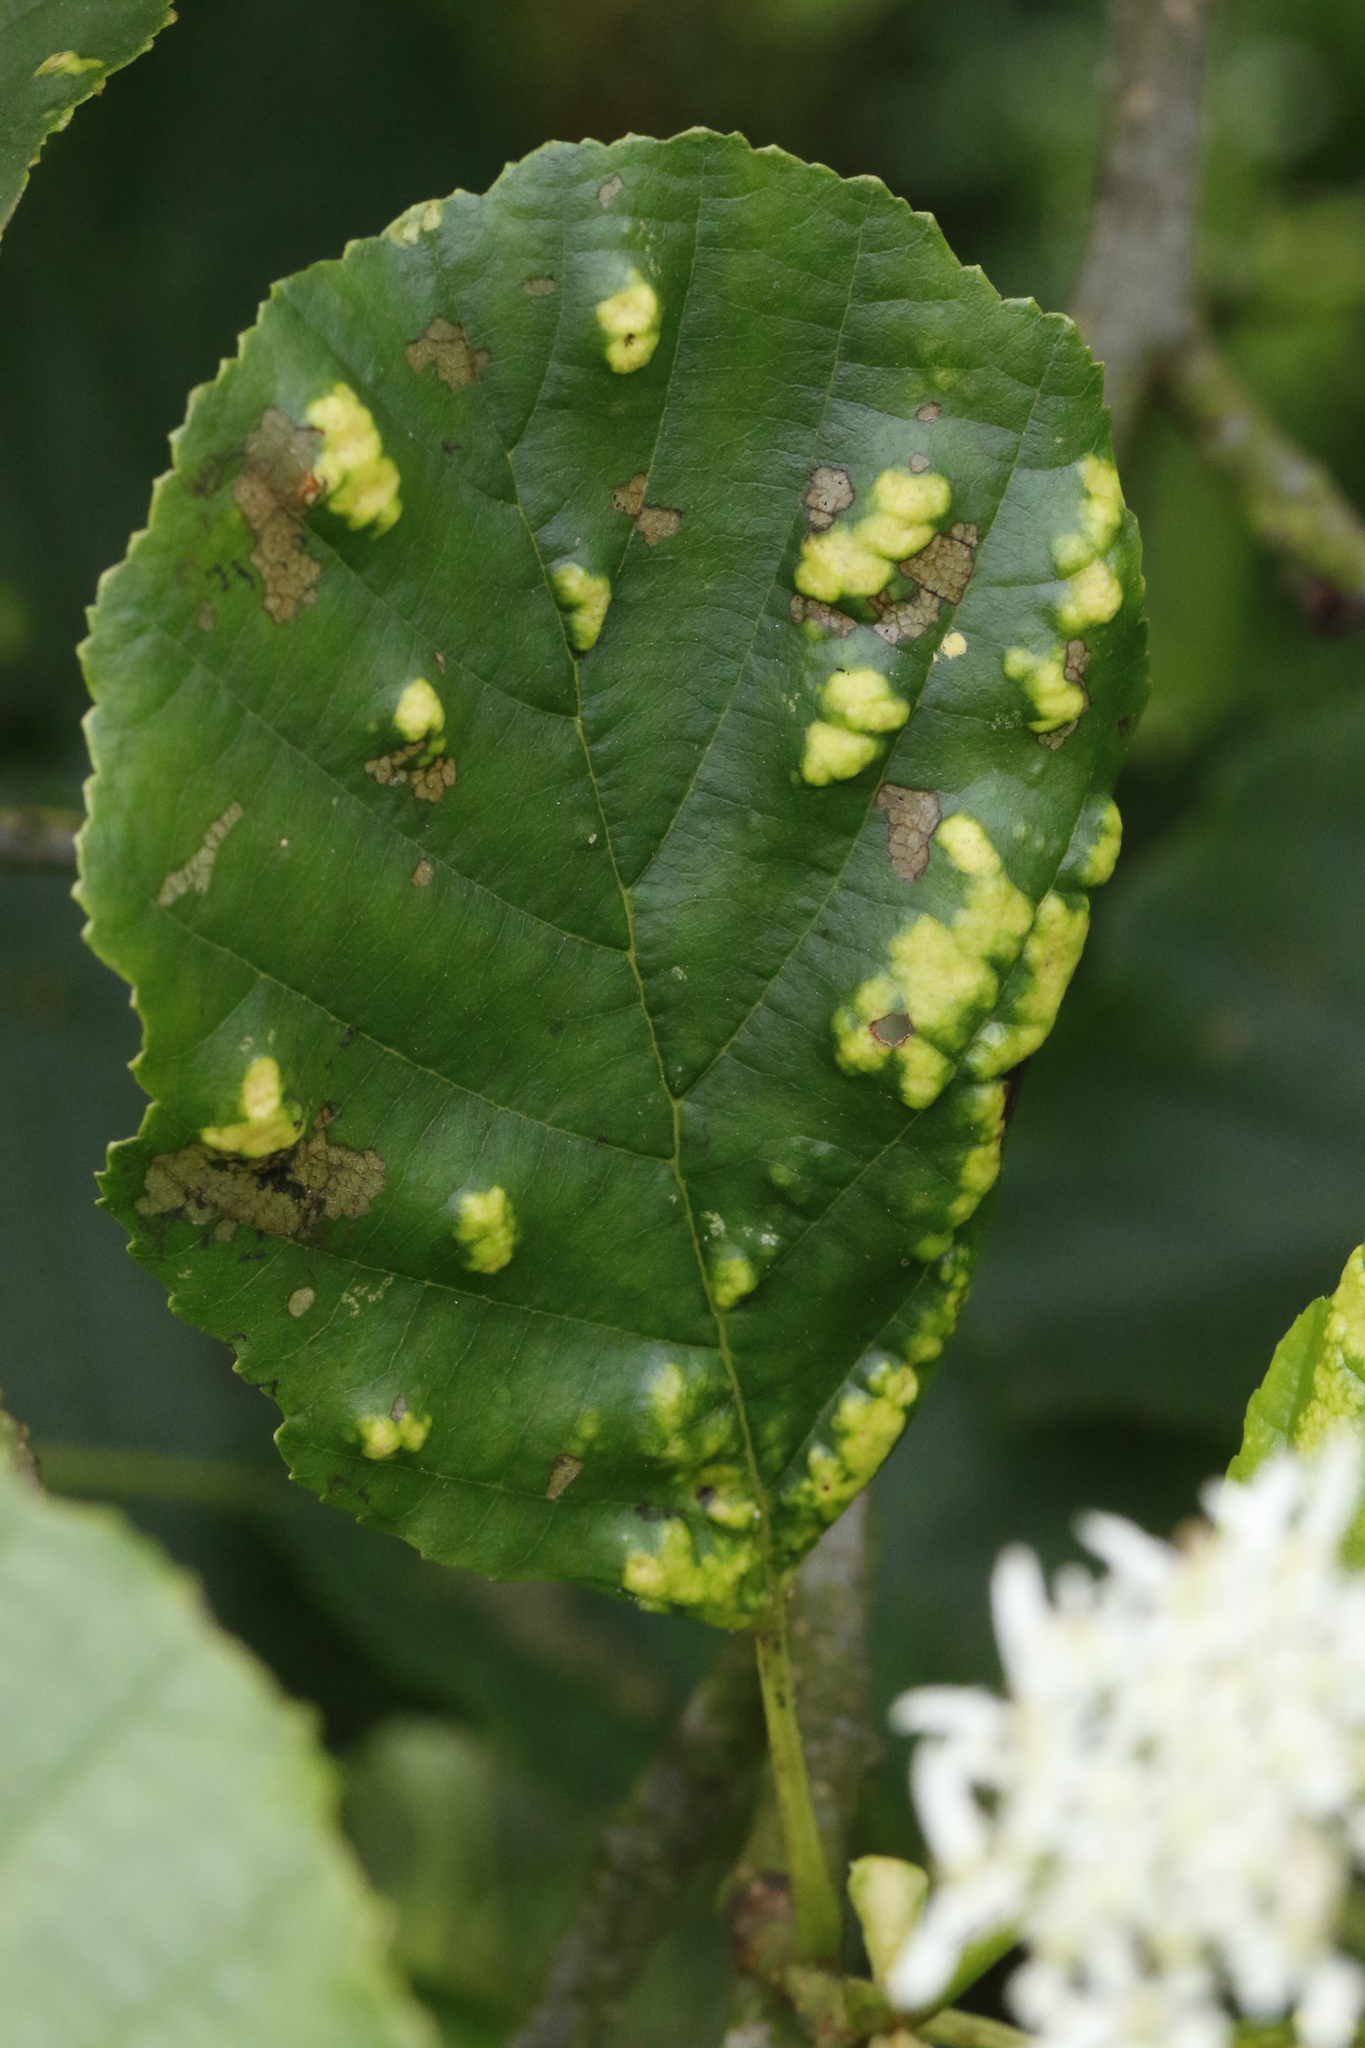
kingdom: Animalia
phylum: Arthropoda
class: Arachnida
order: Trombidiformes
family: Eriophyidae
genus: Eriophyes
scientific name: Eriophyes laevis
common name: Alder leaf gall mite
